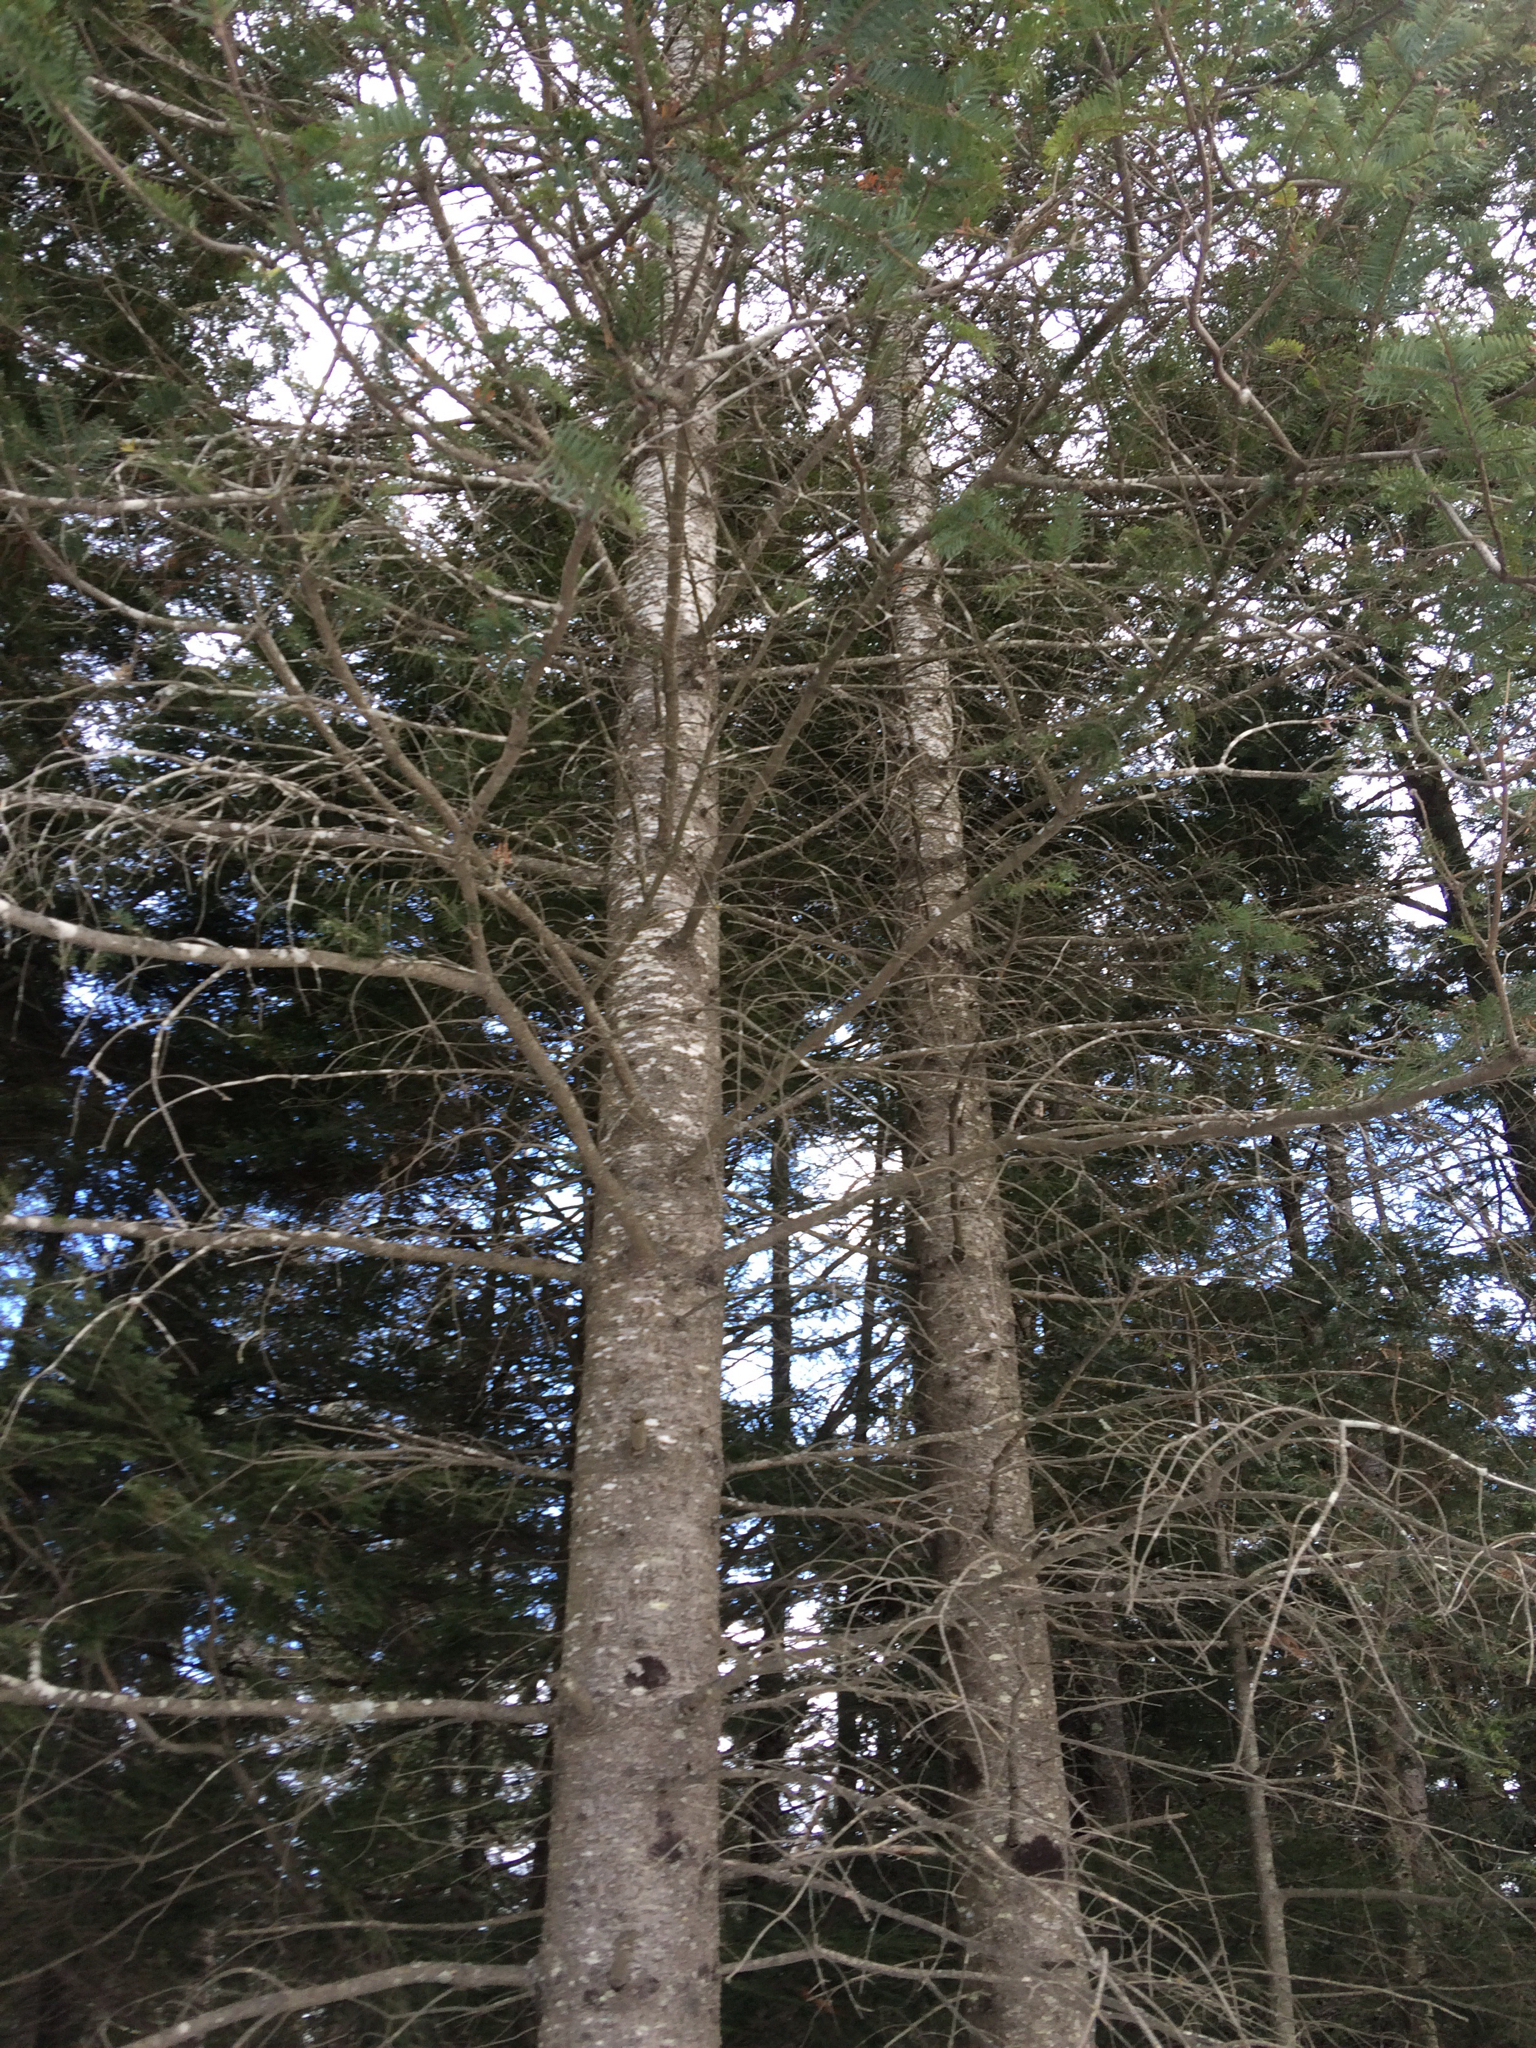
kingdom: Plantae
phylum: Tracheophyta
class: Pinopsida
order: Pinales
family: Pinaceae
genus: Abies
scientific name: Abies balsamea
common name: Balsam fir
